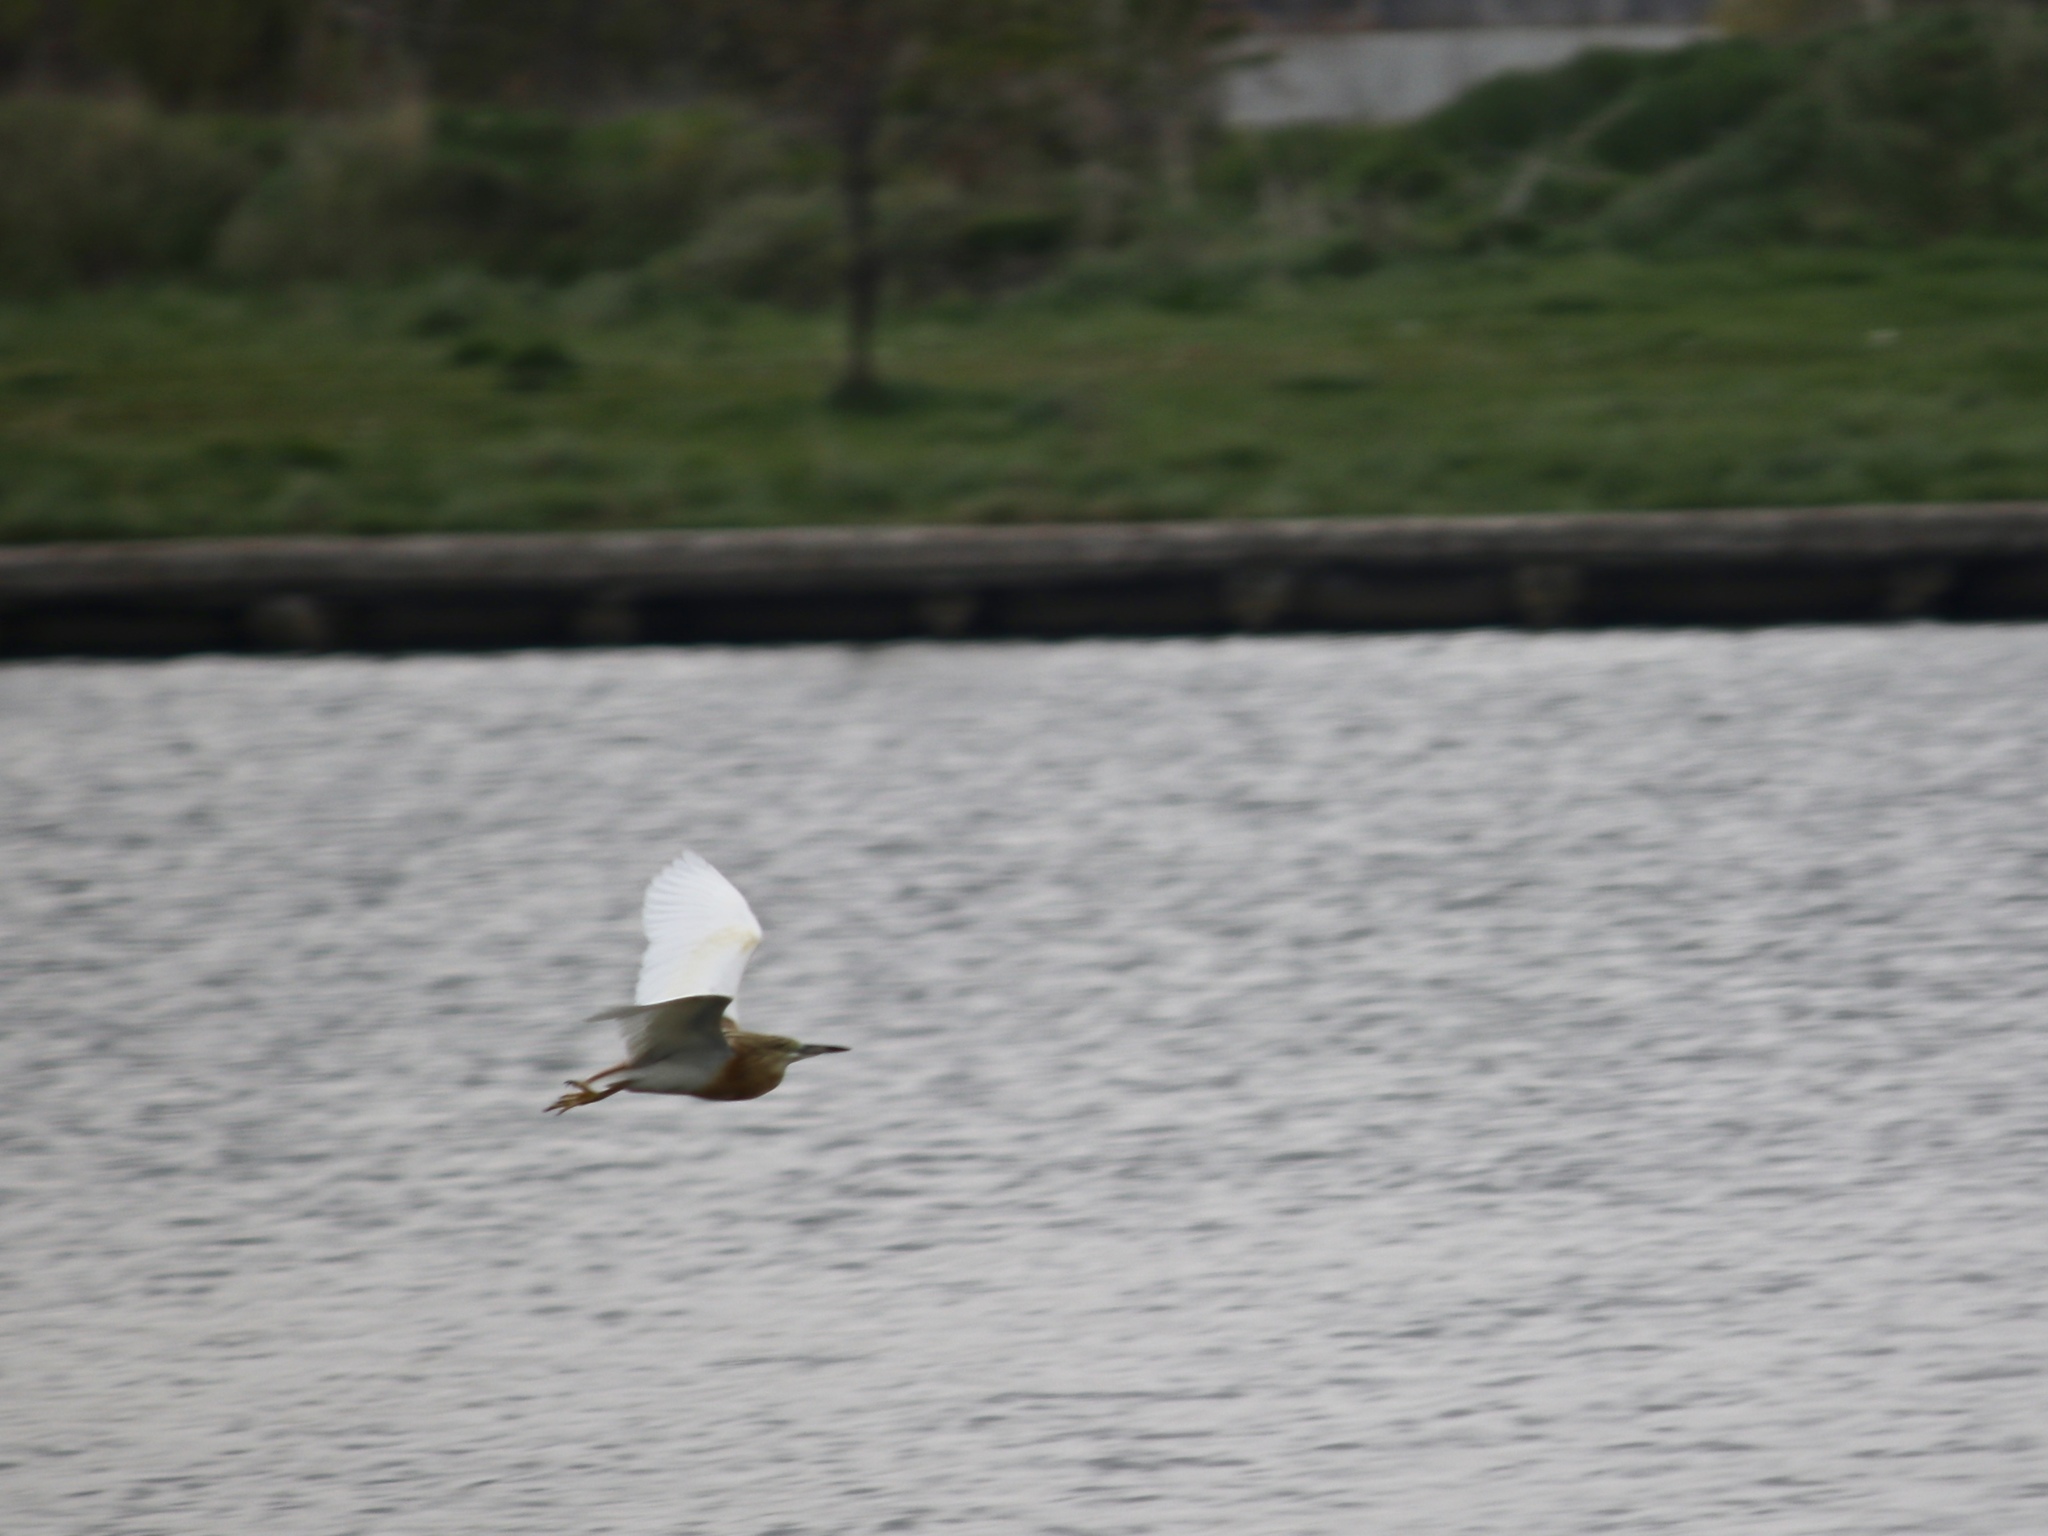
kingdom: Animalia
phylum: Chordata
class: Aves
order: Pelecaniformes
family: Ardeidae
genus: Ardeola
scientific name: Ardeola ralloides
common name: Squacco heron
